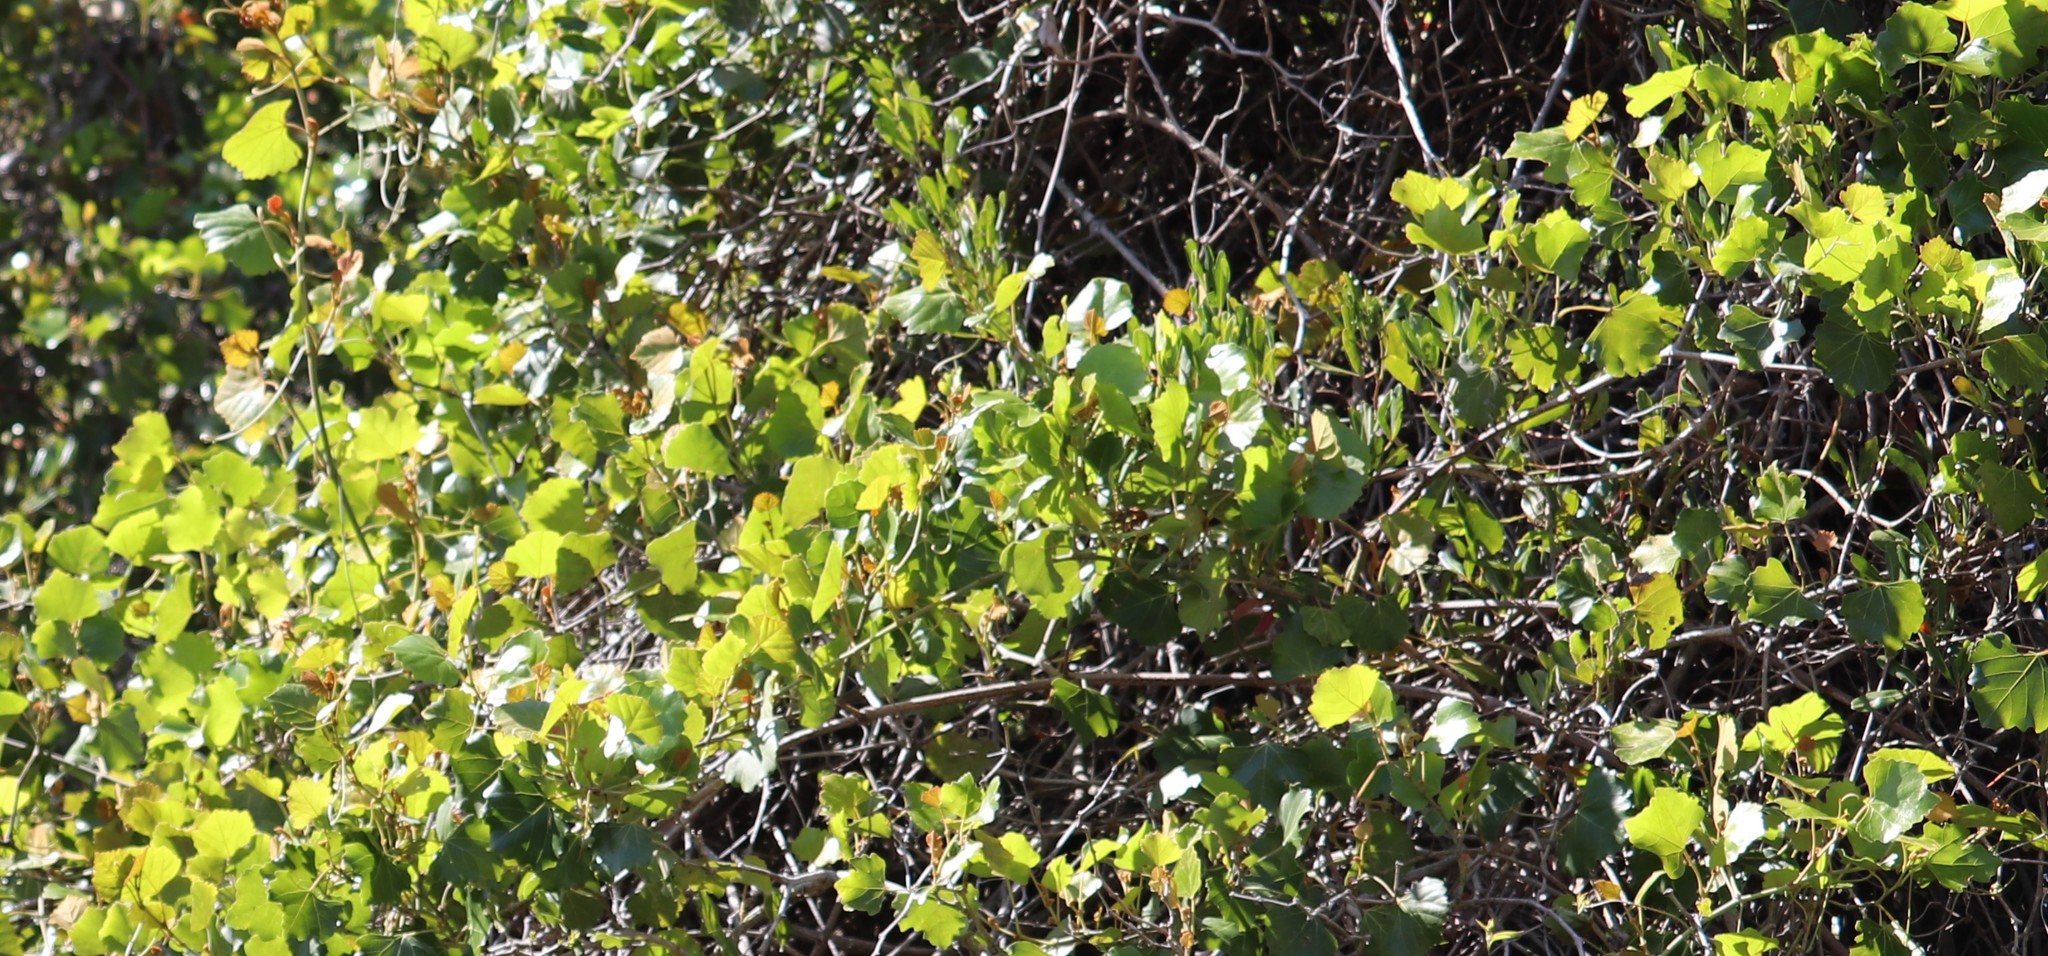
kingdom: Plantae
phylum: Tracheophyta
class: Magnoliopsida
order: Vitales
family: Vitaceae
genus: Rhoicissus
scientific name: Rhoicissus tomentosa
